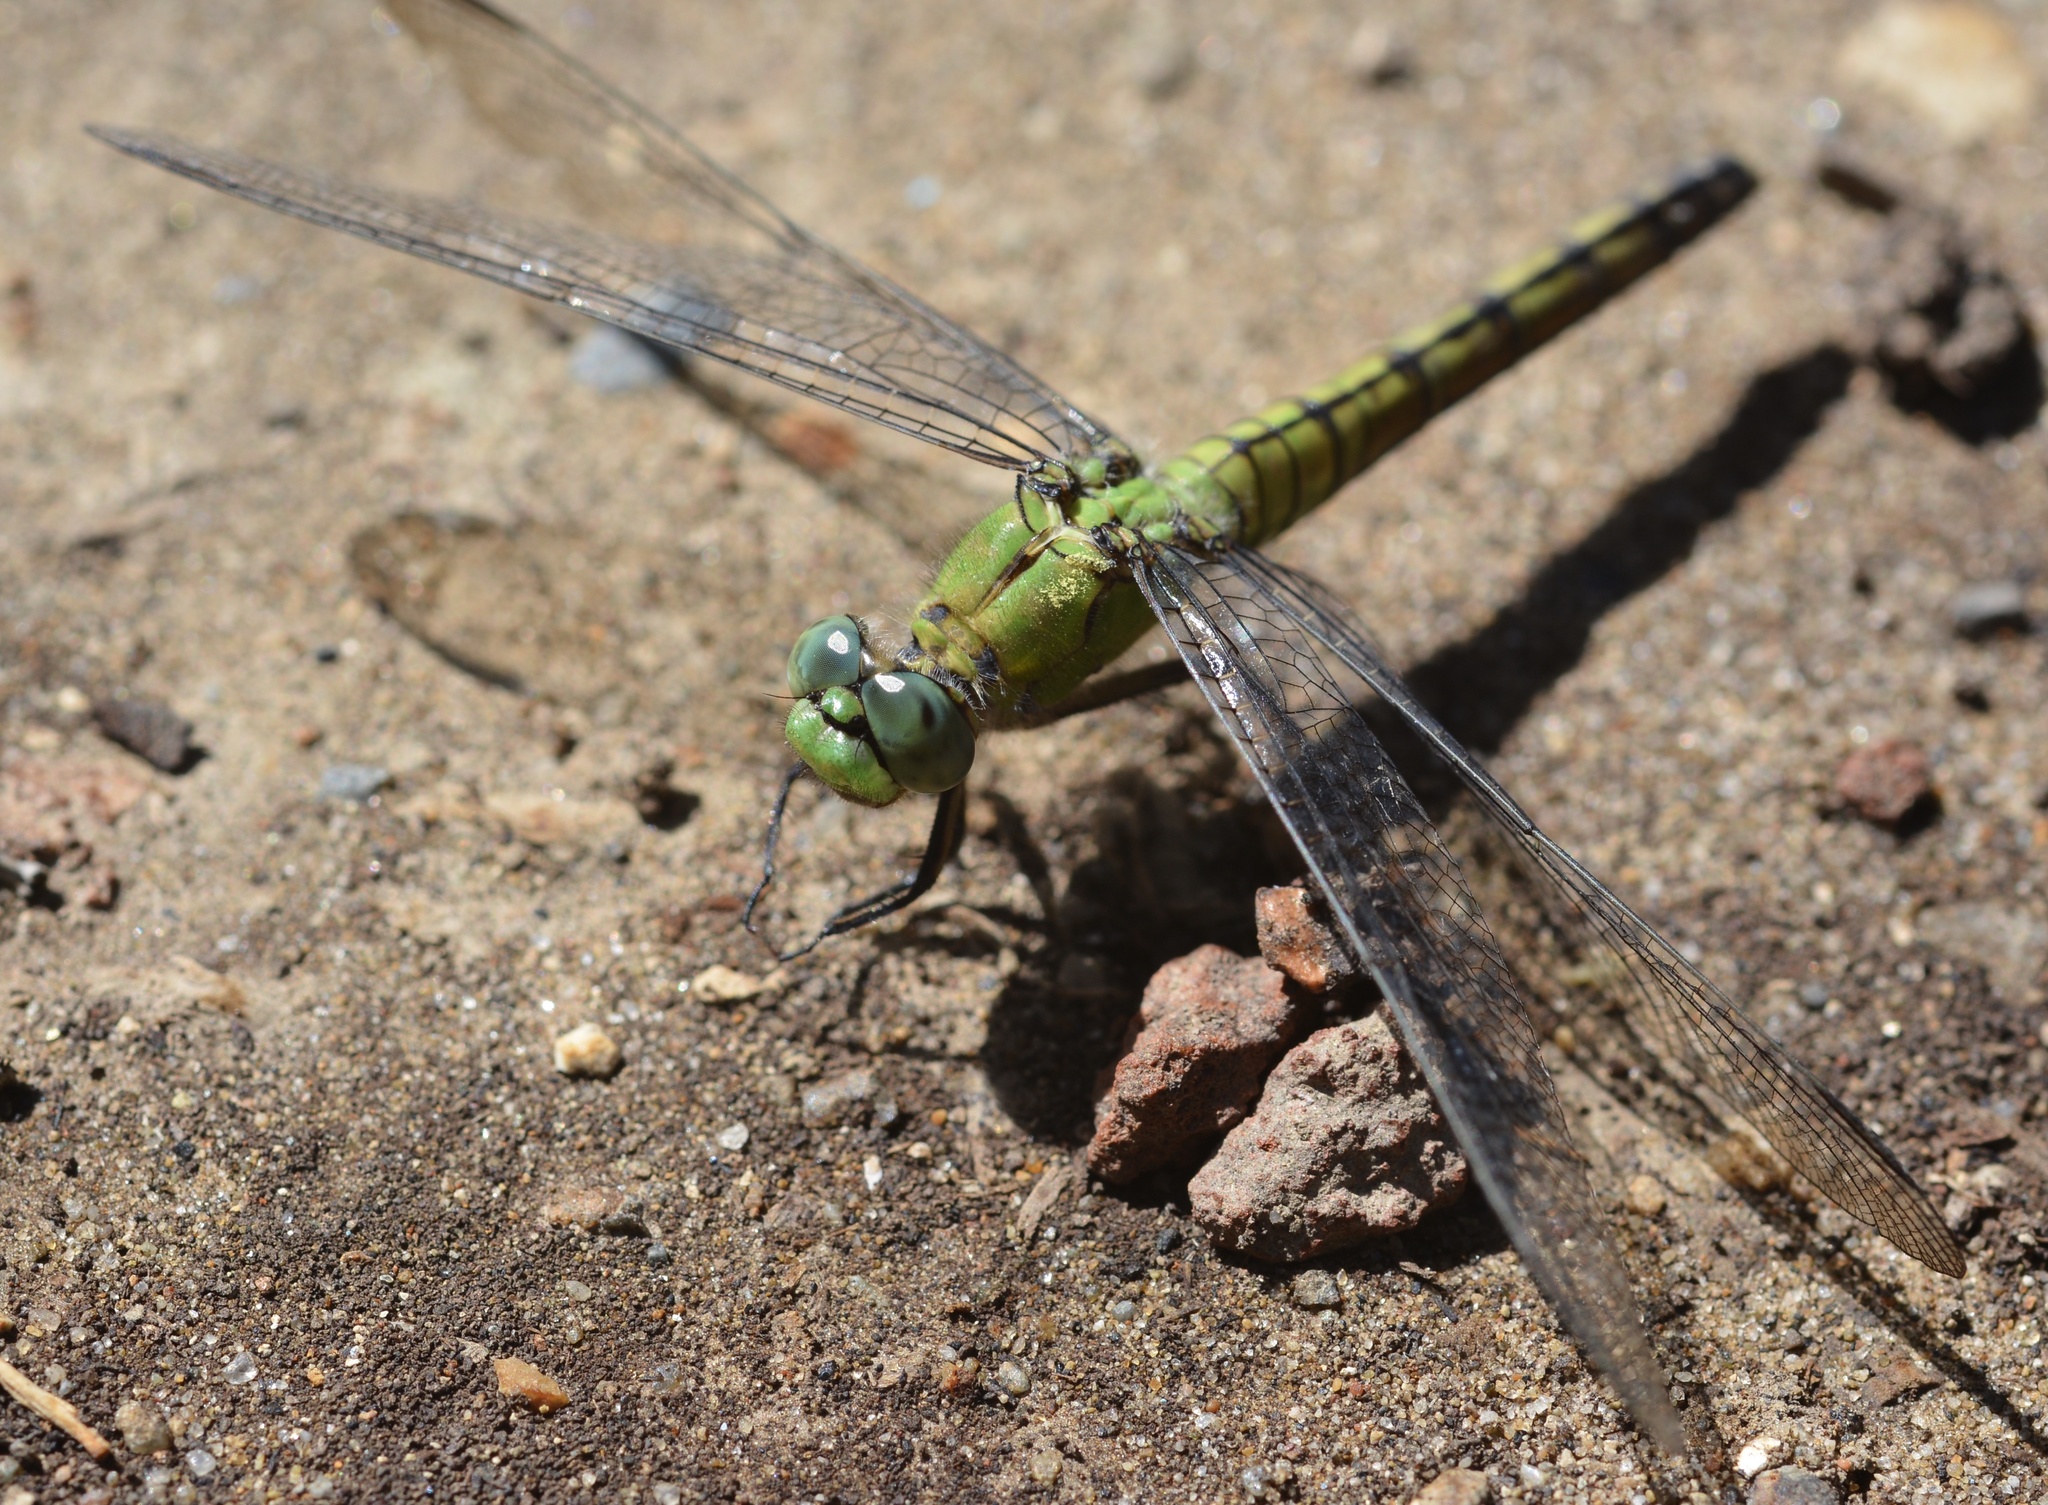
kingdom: Animalia
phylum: Arthropoda
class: Insecta
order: Odonata
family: Libellulidae
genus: Erythemis
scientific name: Erythemis collocata
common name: Western pondhawk
